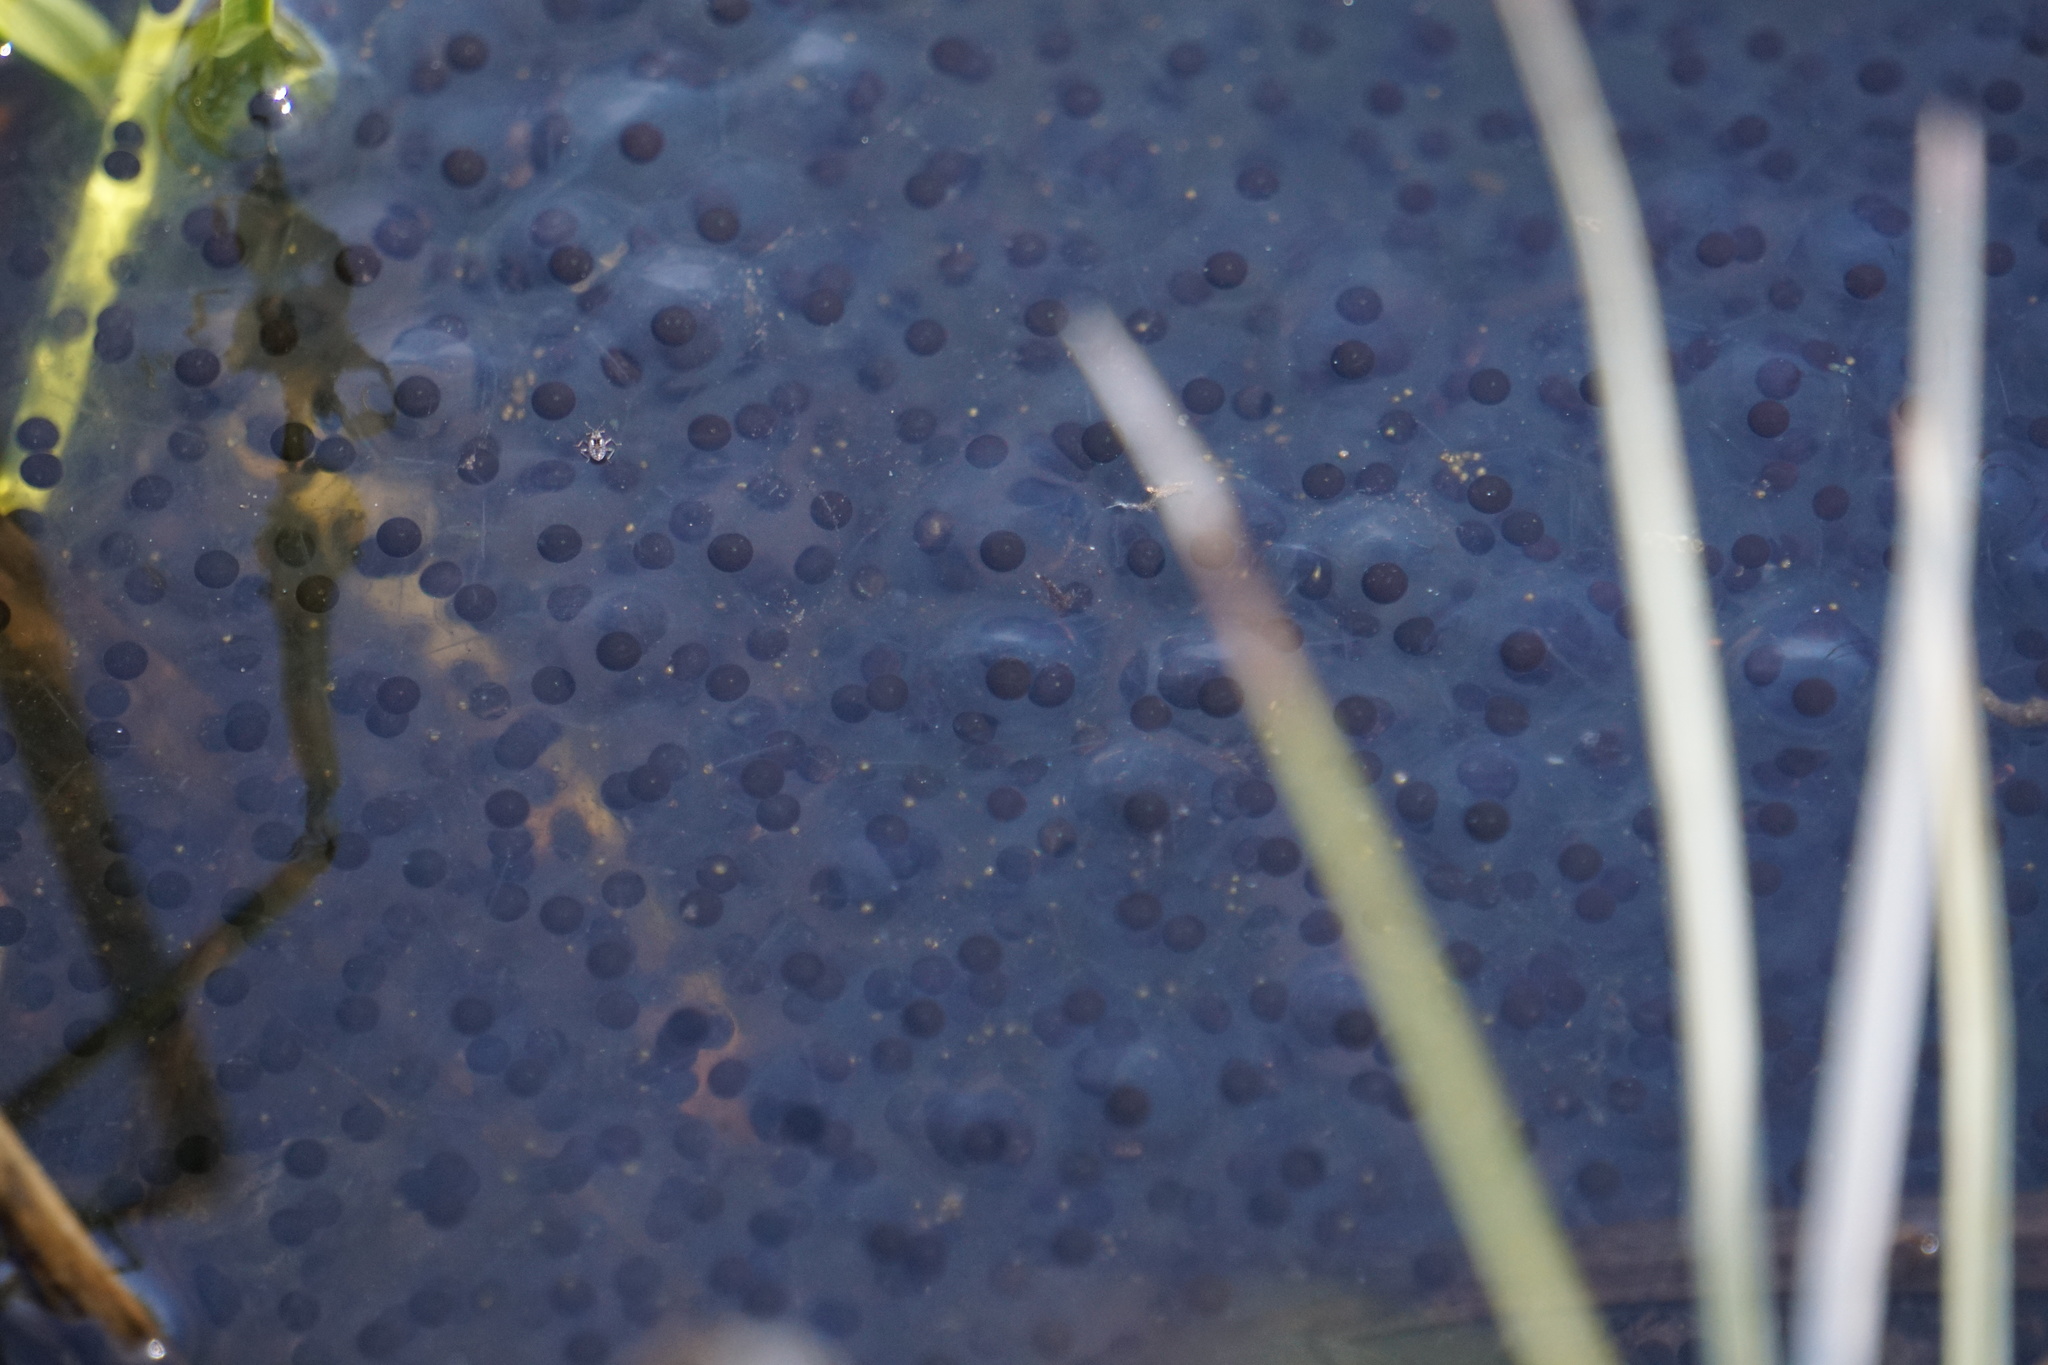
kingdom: Animalia
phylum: Chordata
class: Amphibia
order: Anura
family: Ranidae
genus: Rana
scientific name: Rana luteiventris
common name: Columbia spotted frog
